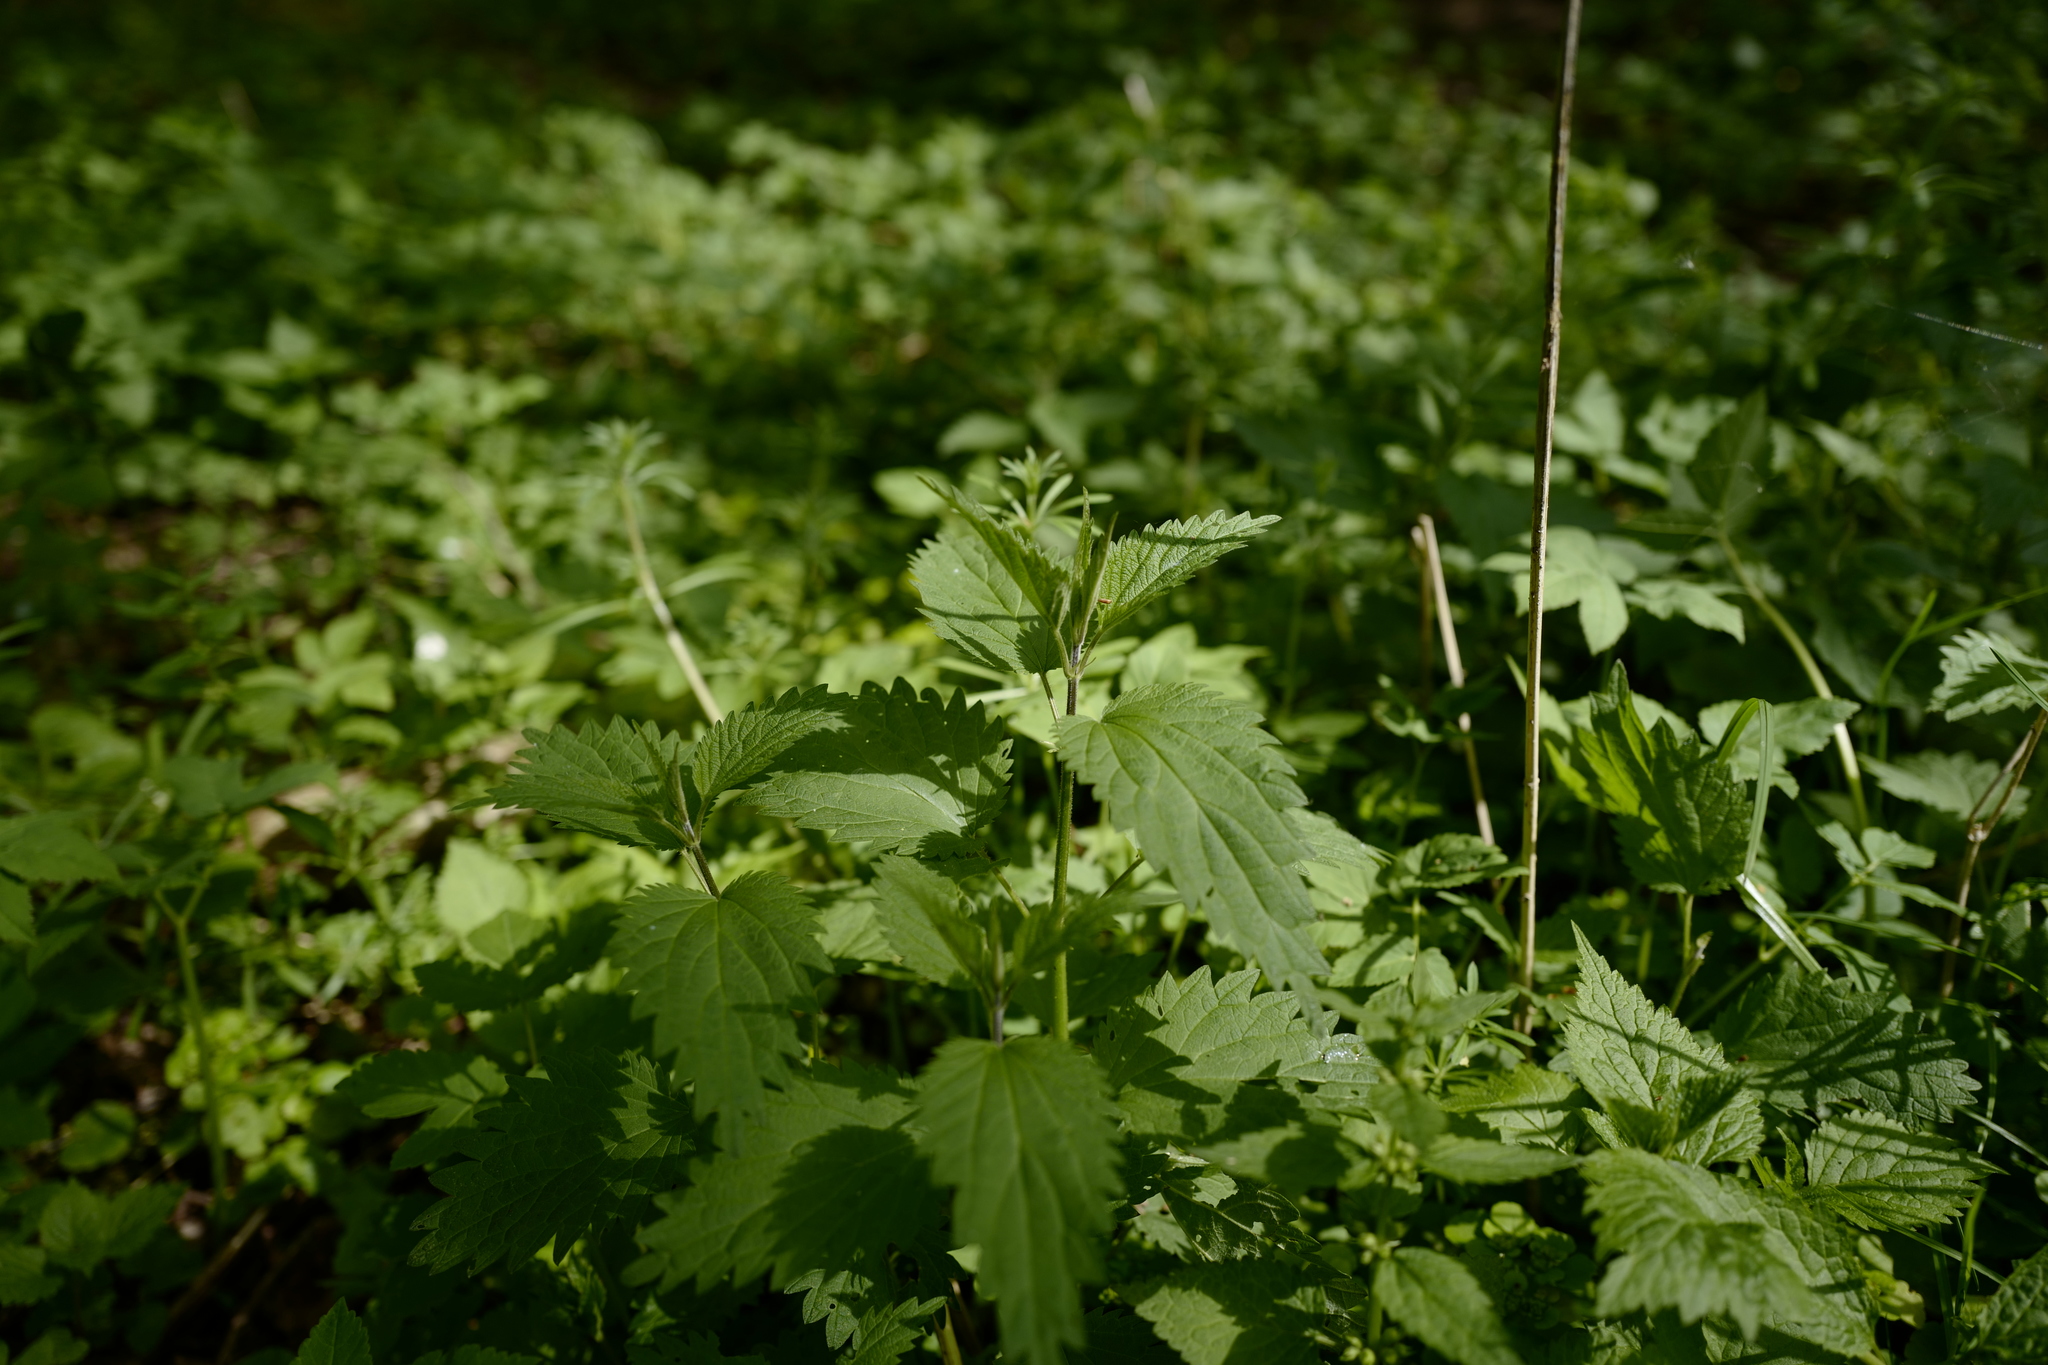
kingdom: Plantae
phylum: Tracheophyta
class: Magnoliopsida
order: Rosales
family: Urticaceae
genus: Urtica
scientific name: Urtica dioica
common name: Common nettle
